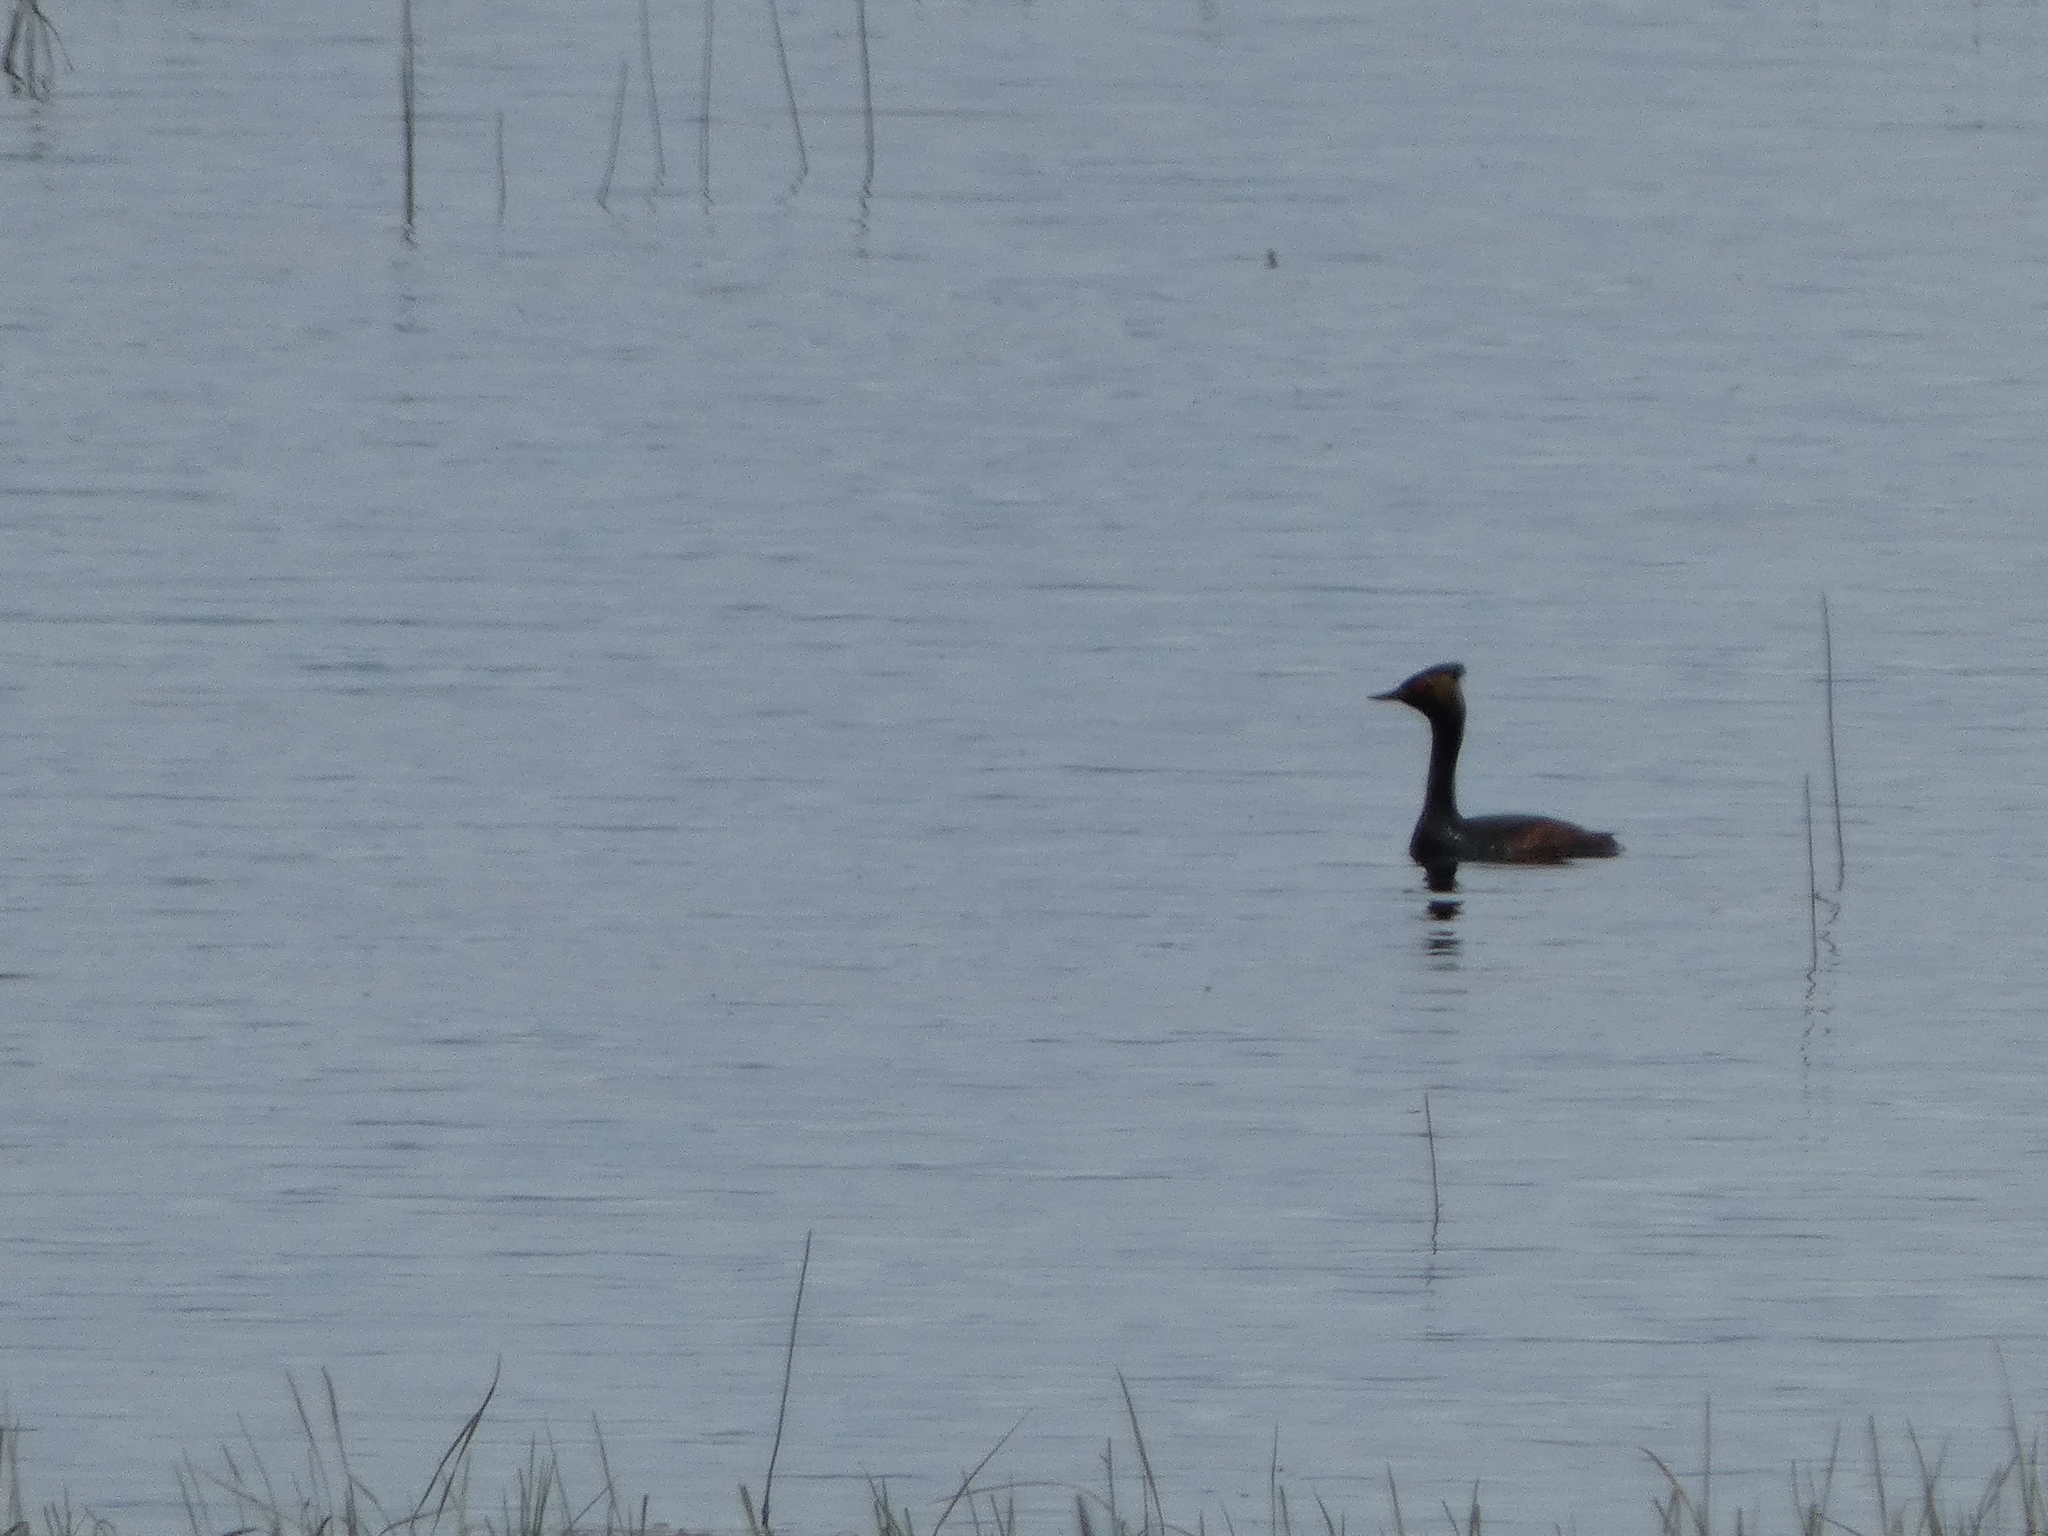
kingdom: Animalia
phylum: Chordata
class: Aves
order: Podicipediformes
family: Podicipedidae
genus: Podiceps
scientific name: Podiceps nigricollis
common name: Black-necked grebe
